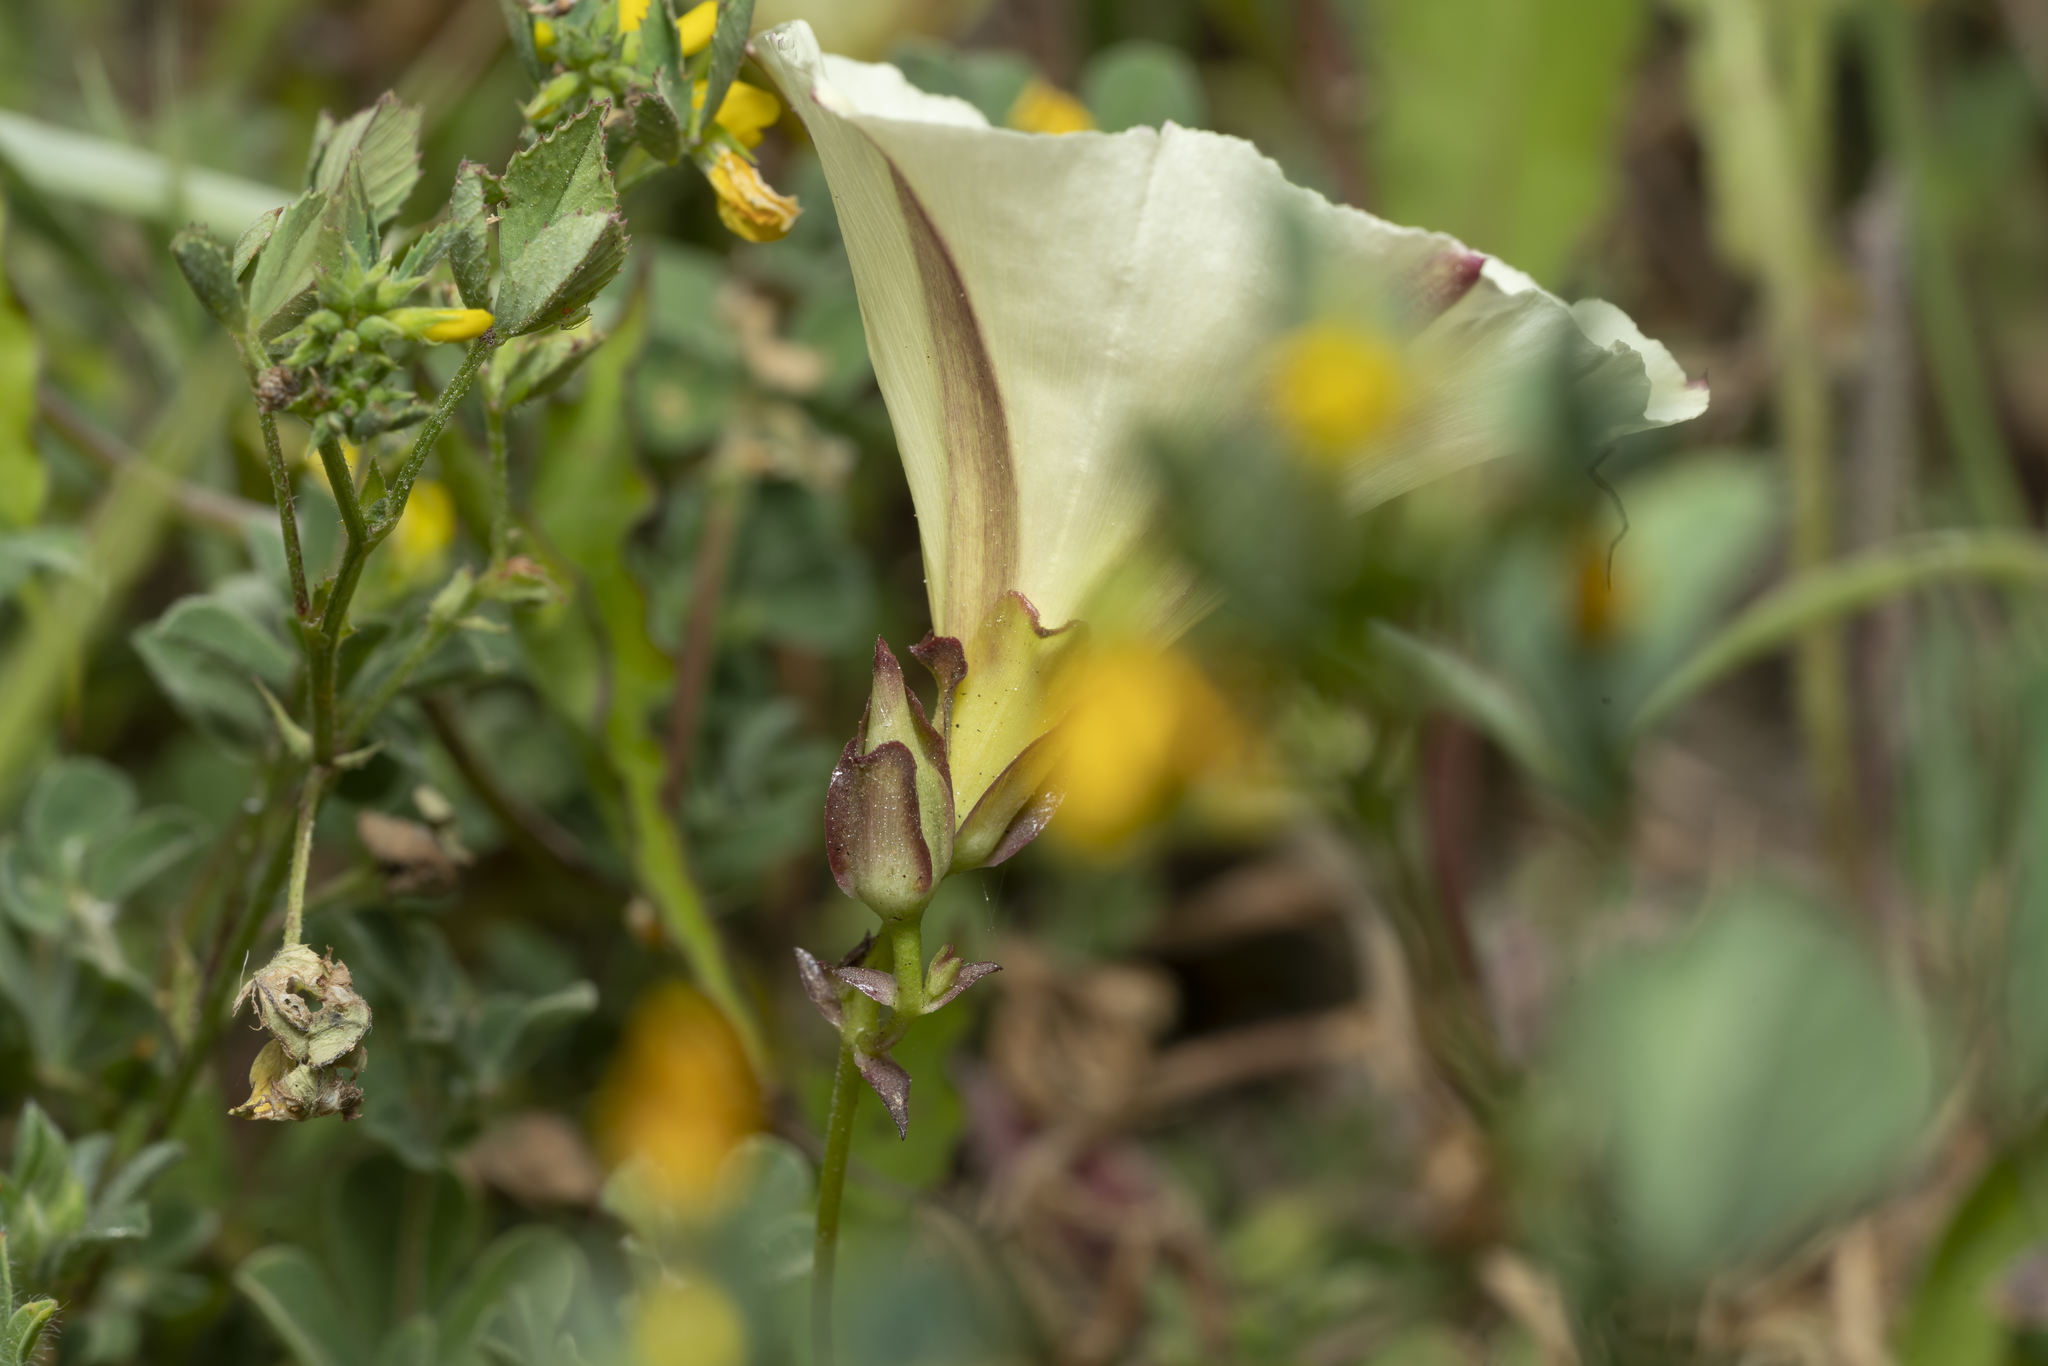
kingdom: Plantae
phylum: Tracheophyta
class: Magnoliopsida
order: Solanales
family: Convolvulaceae
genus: Convolvulus
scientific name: Convolvulus scammonia
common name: Scammony
